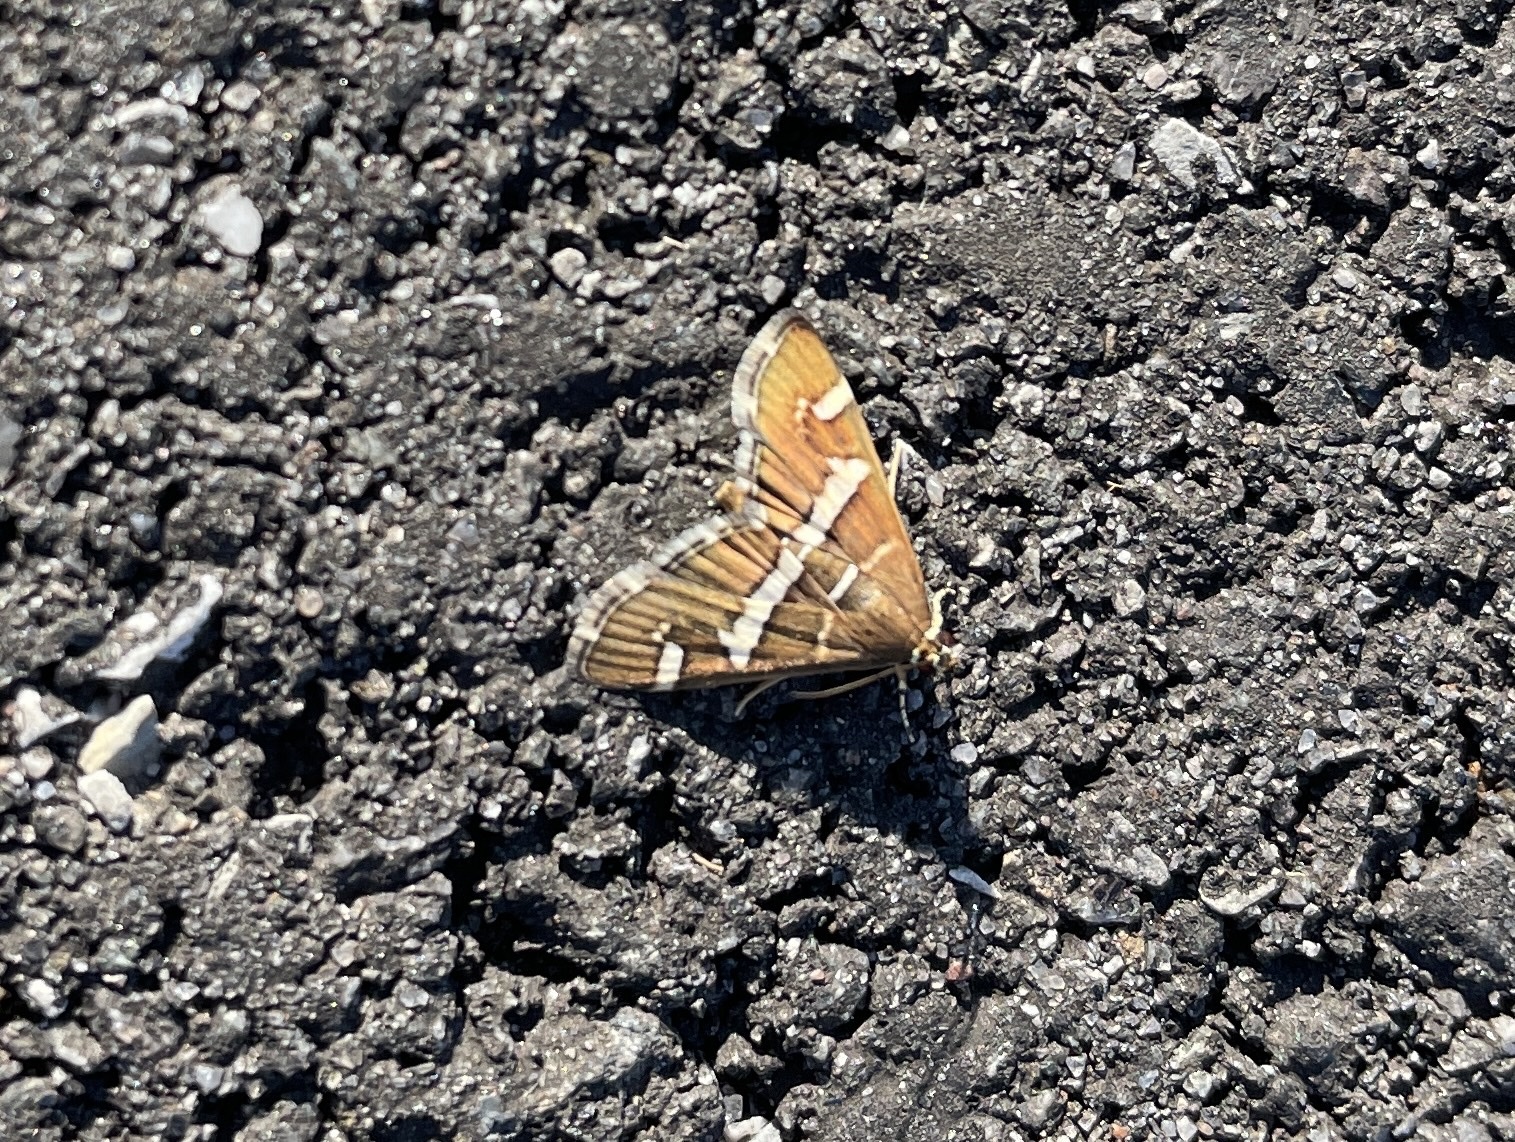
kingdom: Animalia
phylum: Arthropoda
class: Insecta
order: Lepidoptera
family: Crambidae
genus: Spoladea
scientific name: Spoladea recurvalis
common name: Beet webworm moth
